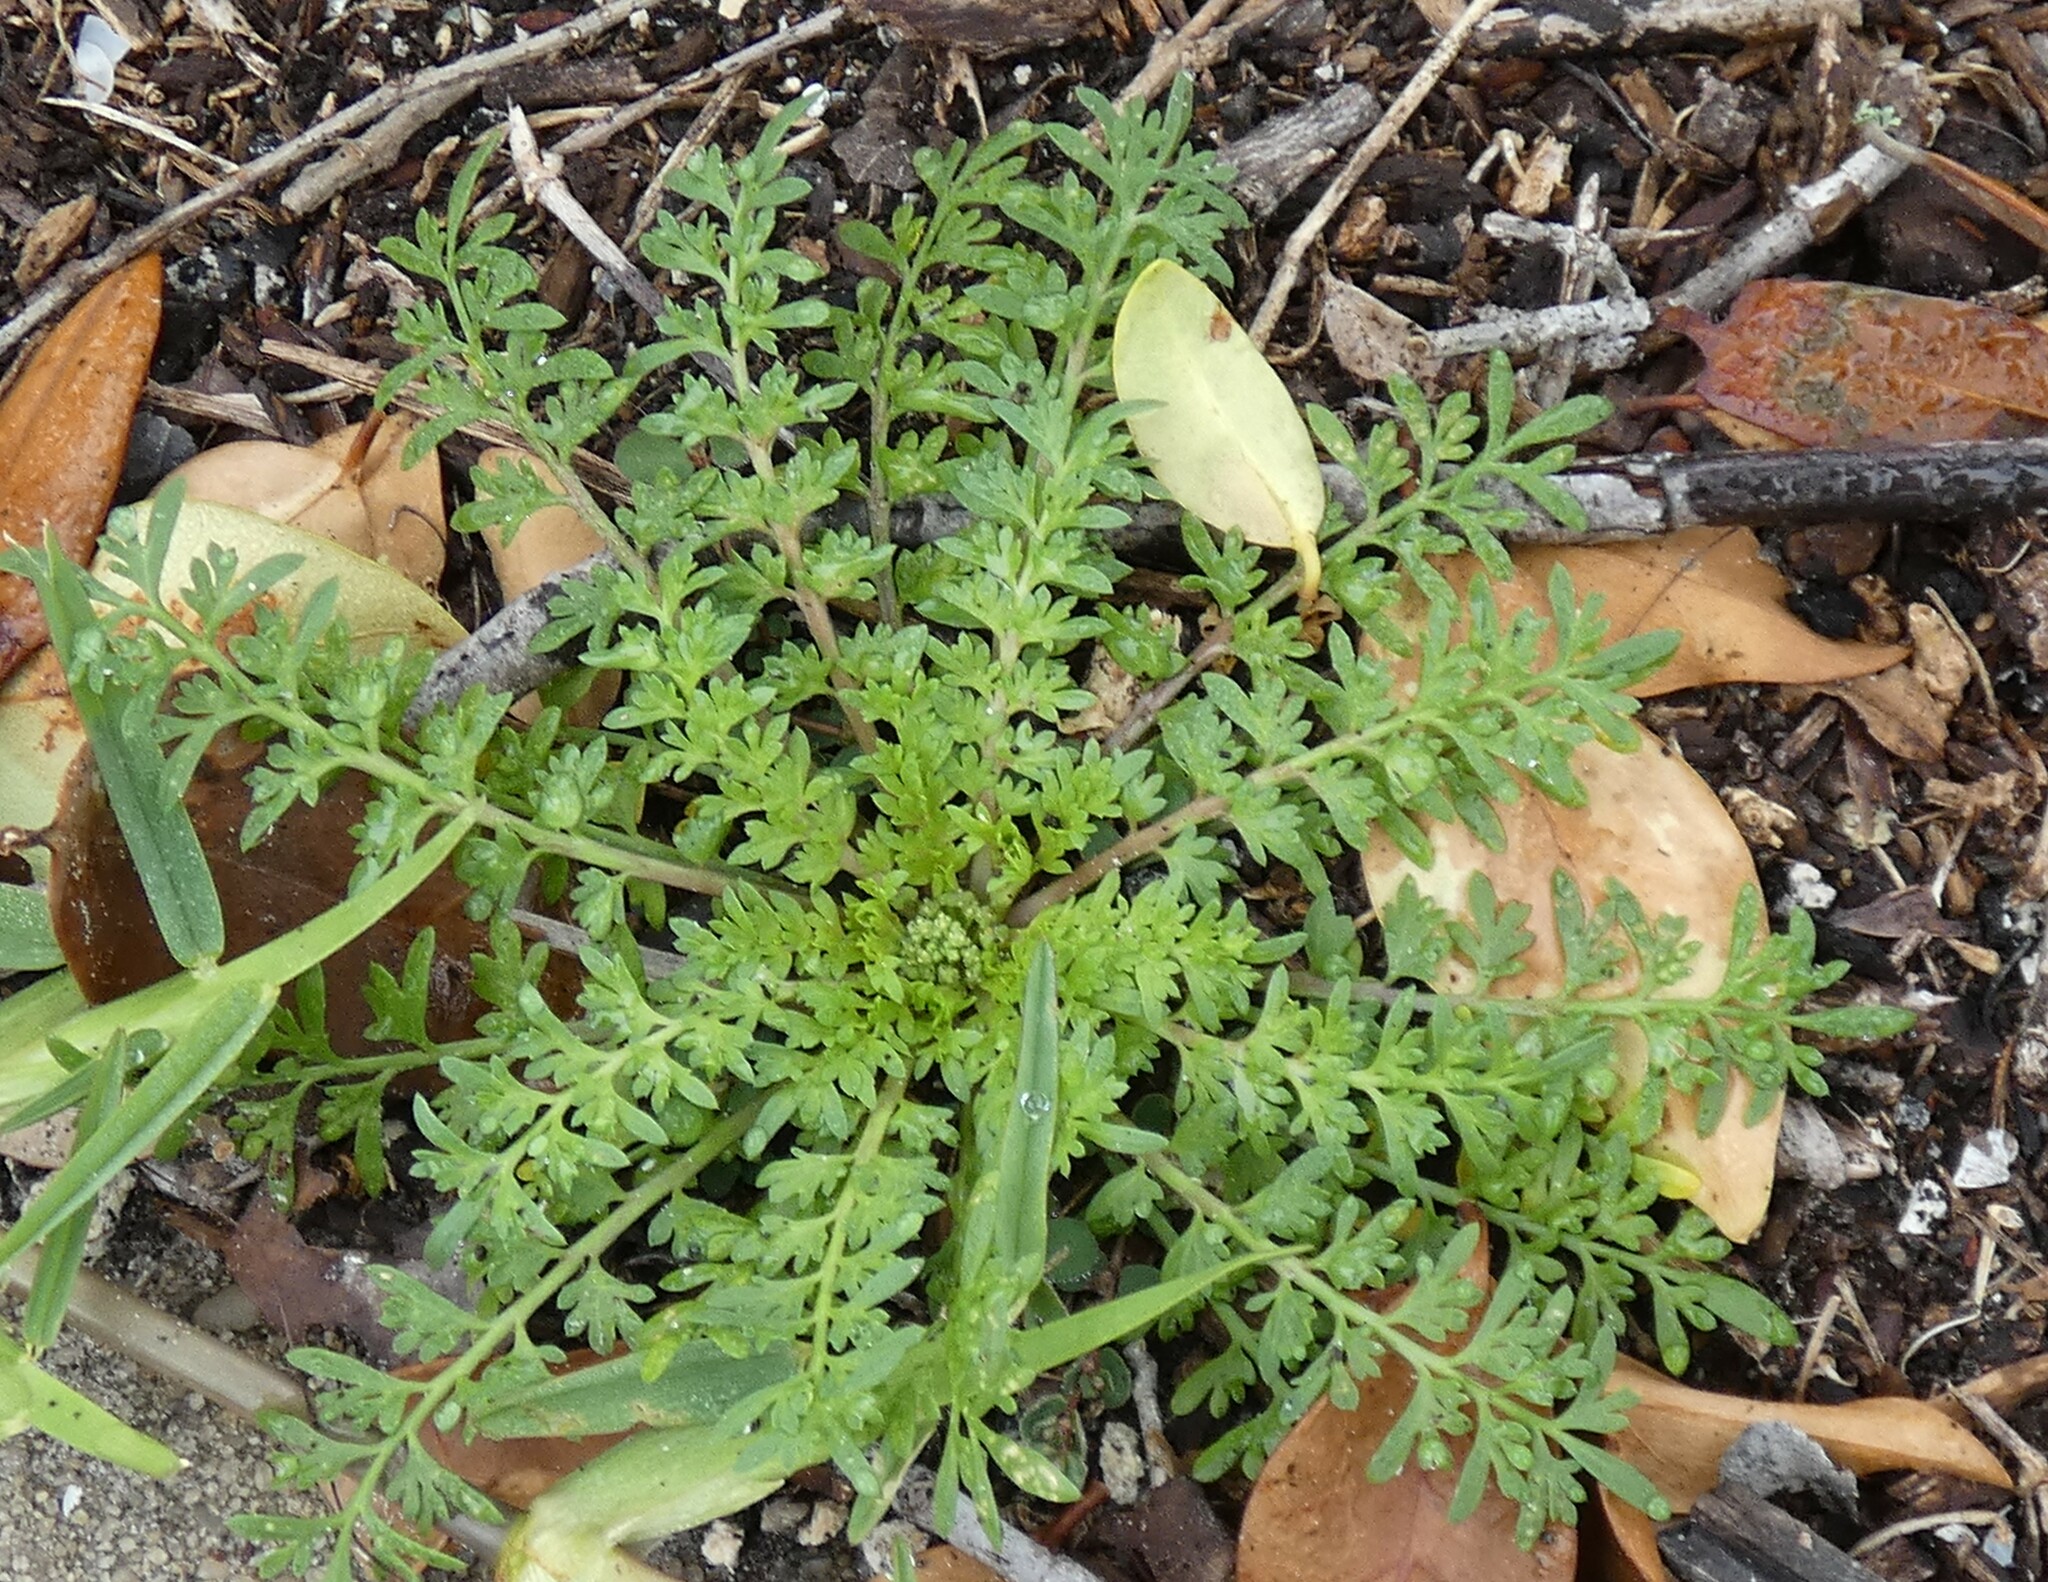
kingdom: Plantae
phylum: Tracheophyta
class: Magnoliopsida
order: Brassicales
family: Brassicaceae
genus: Lepidium
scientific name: Lepidium didymum
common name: Lesser swinecress
